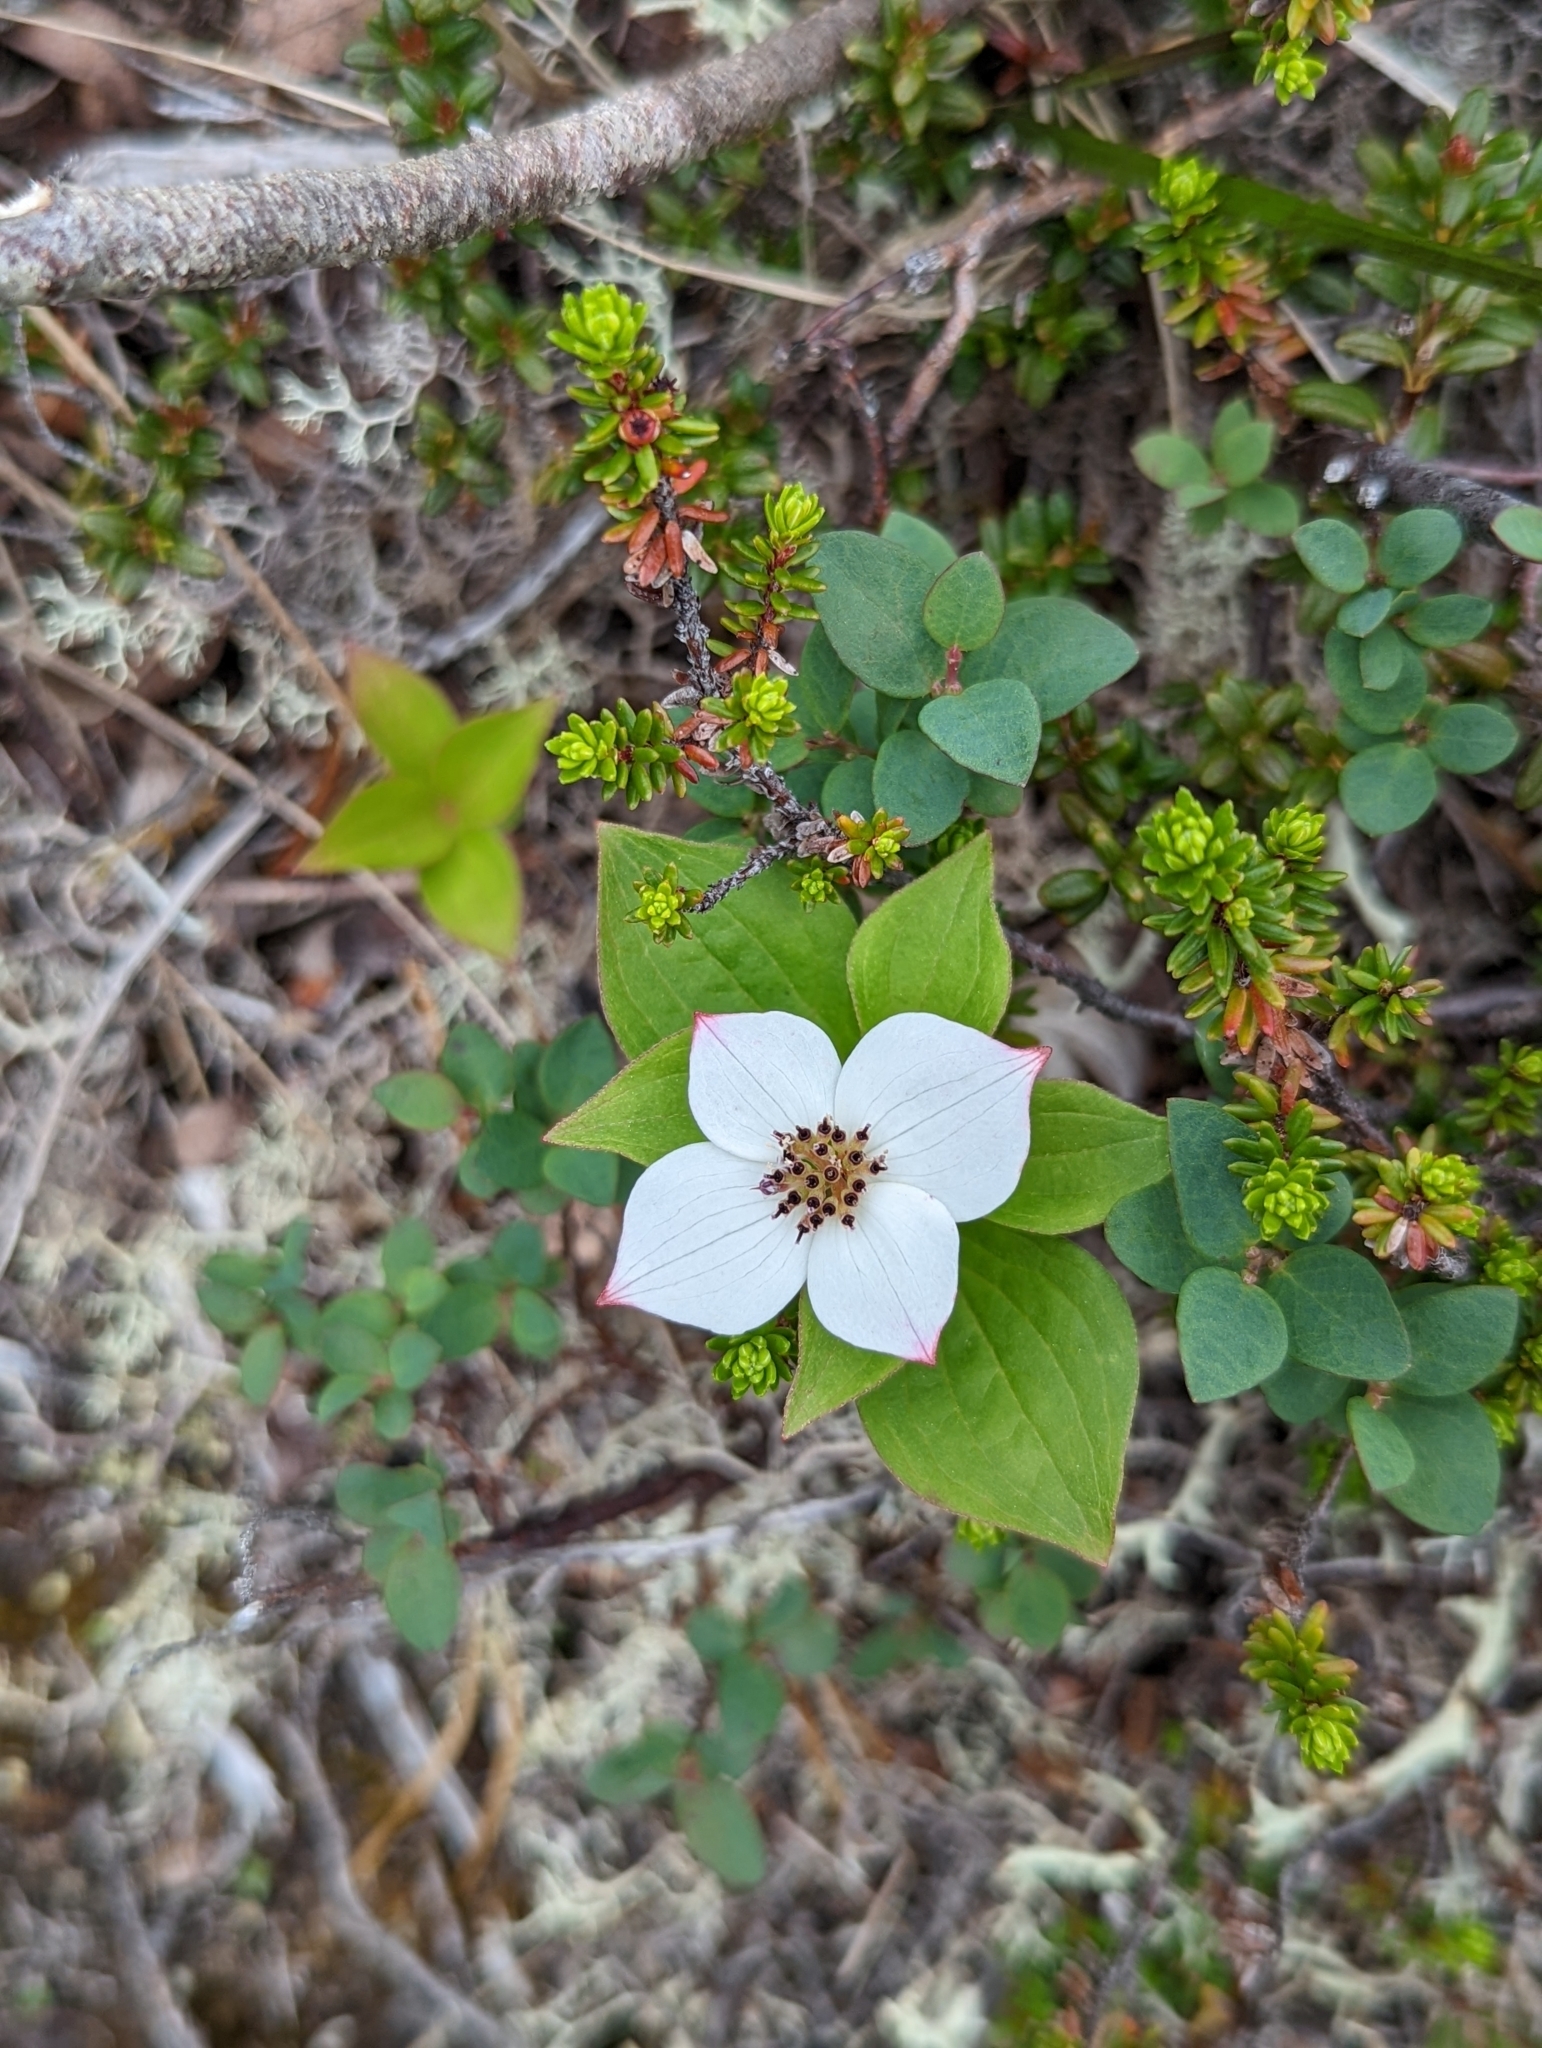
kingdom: Plantae
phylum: Tracheophyta
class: Magnoliopsida
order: Cornales
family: Cornaceae
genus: Cornus
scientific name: Cornus unalaschkensis
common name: Alaska bunchberry
